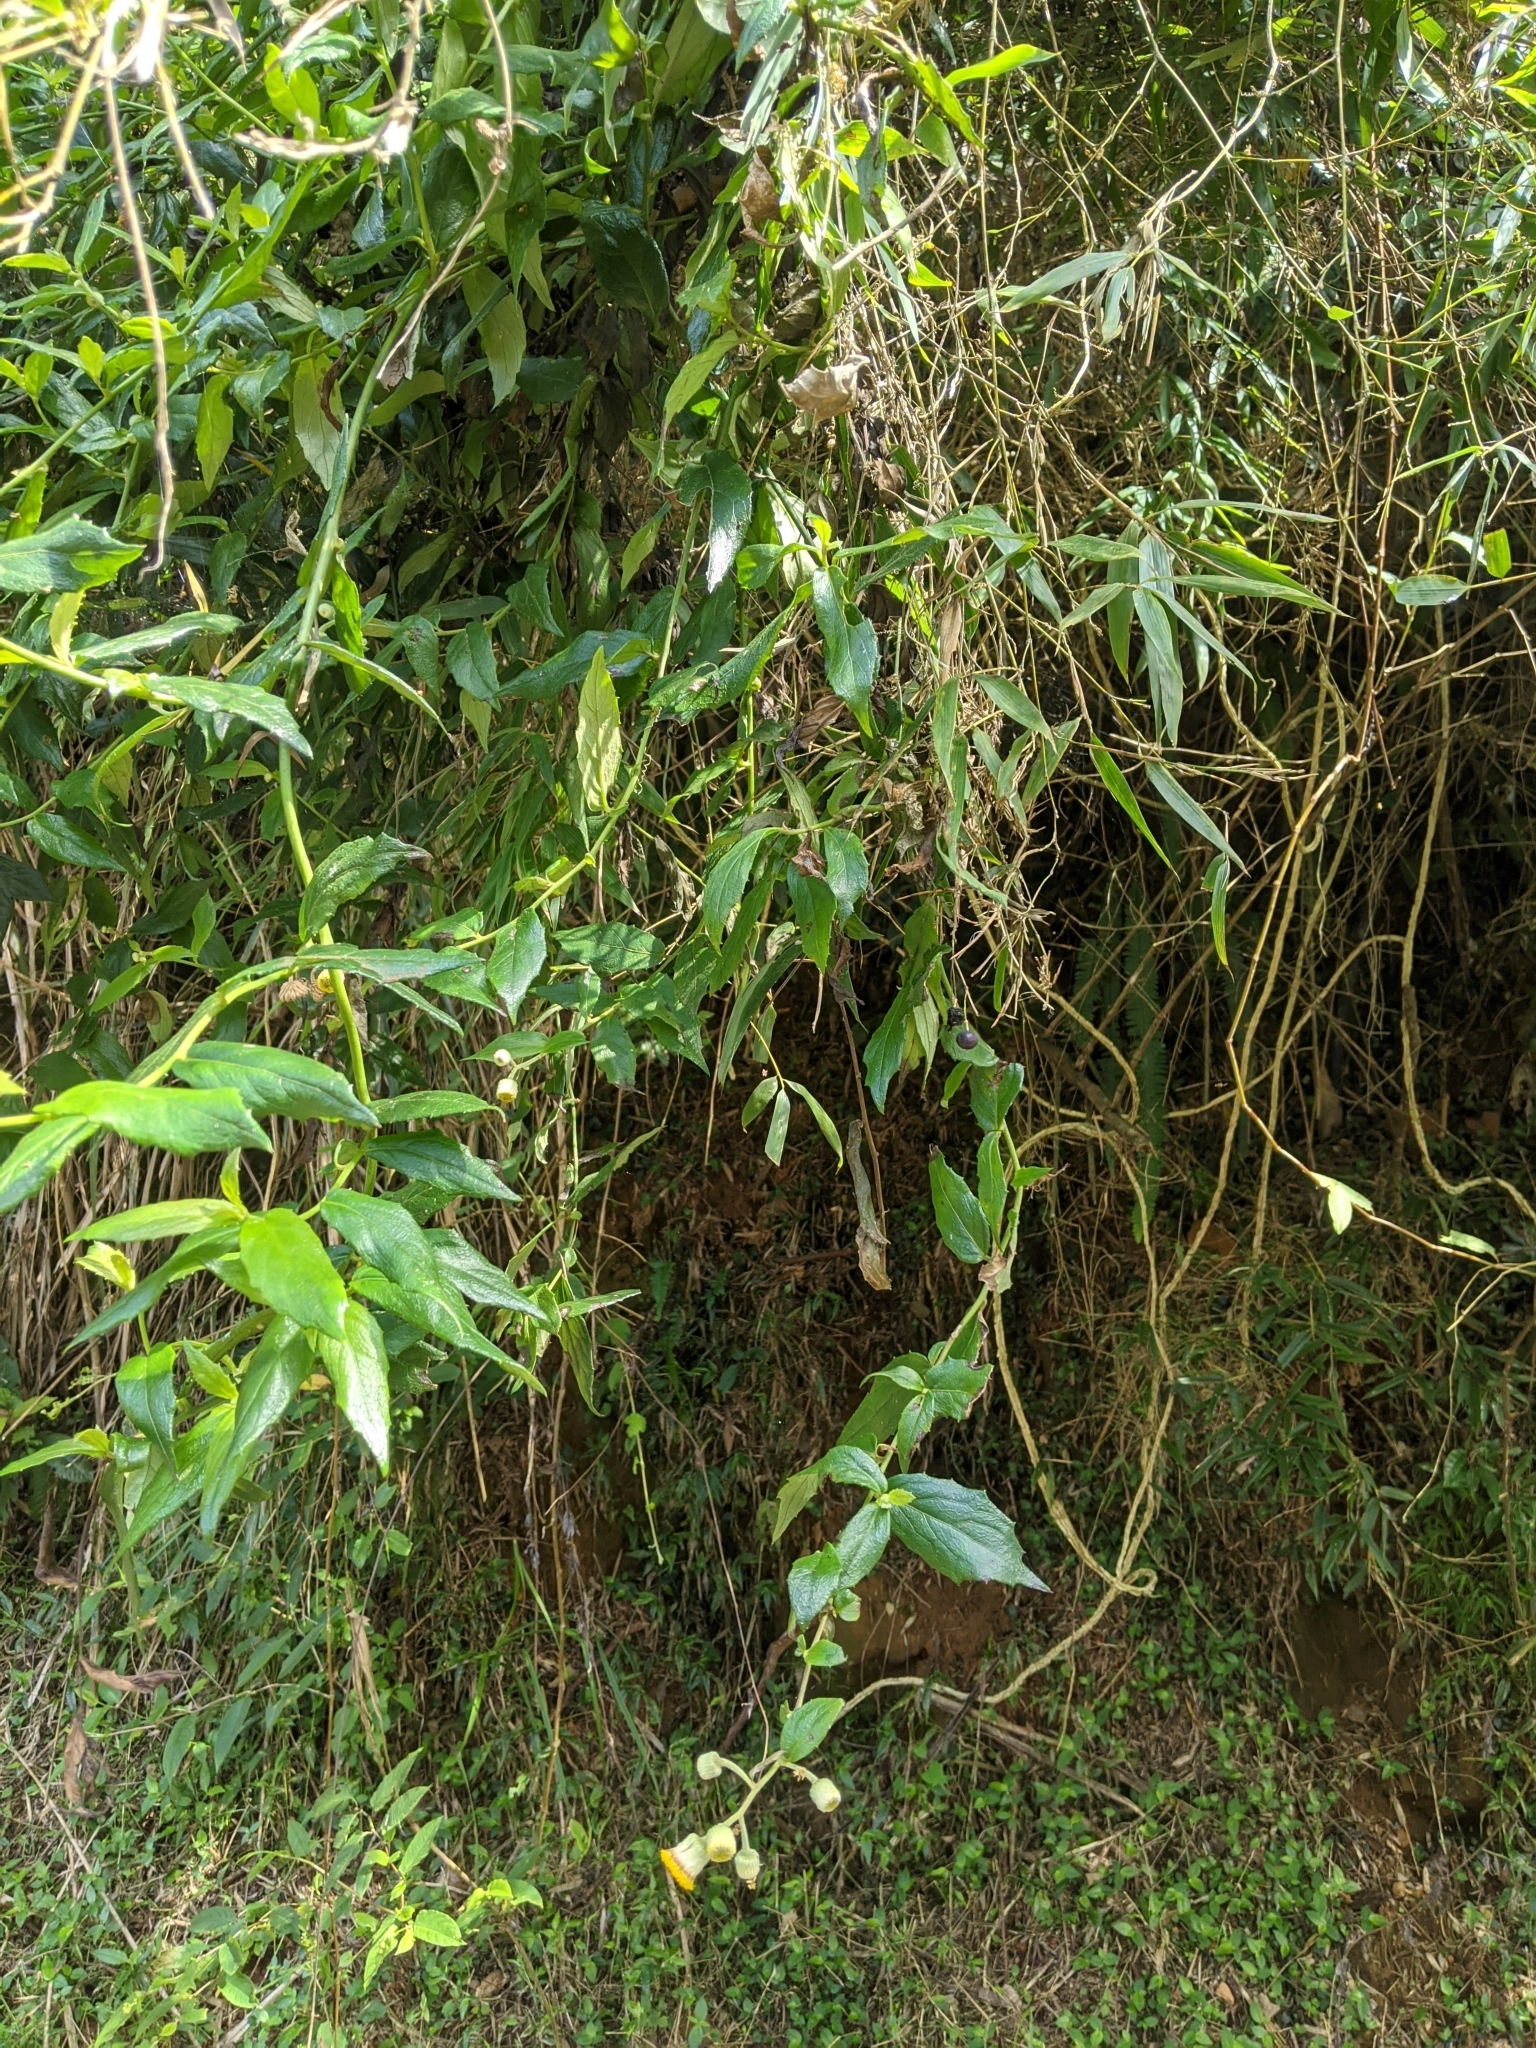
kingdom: Plantae
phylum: Tracheophyta
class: Magnoliopsida
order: Asterales
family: Asteraceae
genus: Blumea
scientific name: Blumea megacephala
